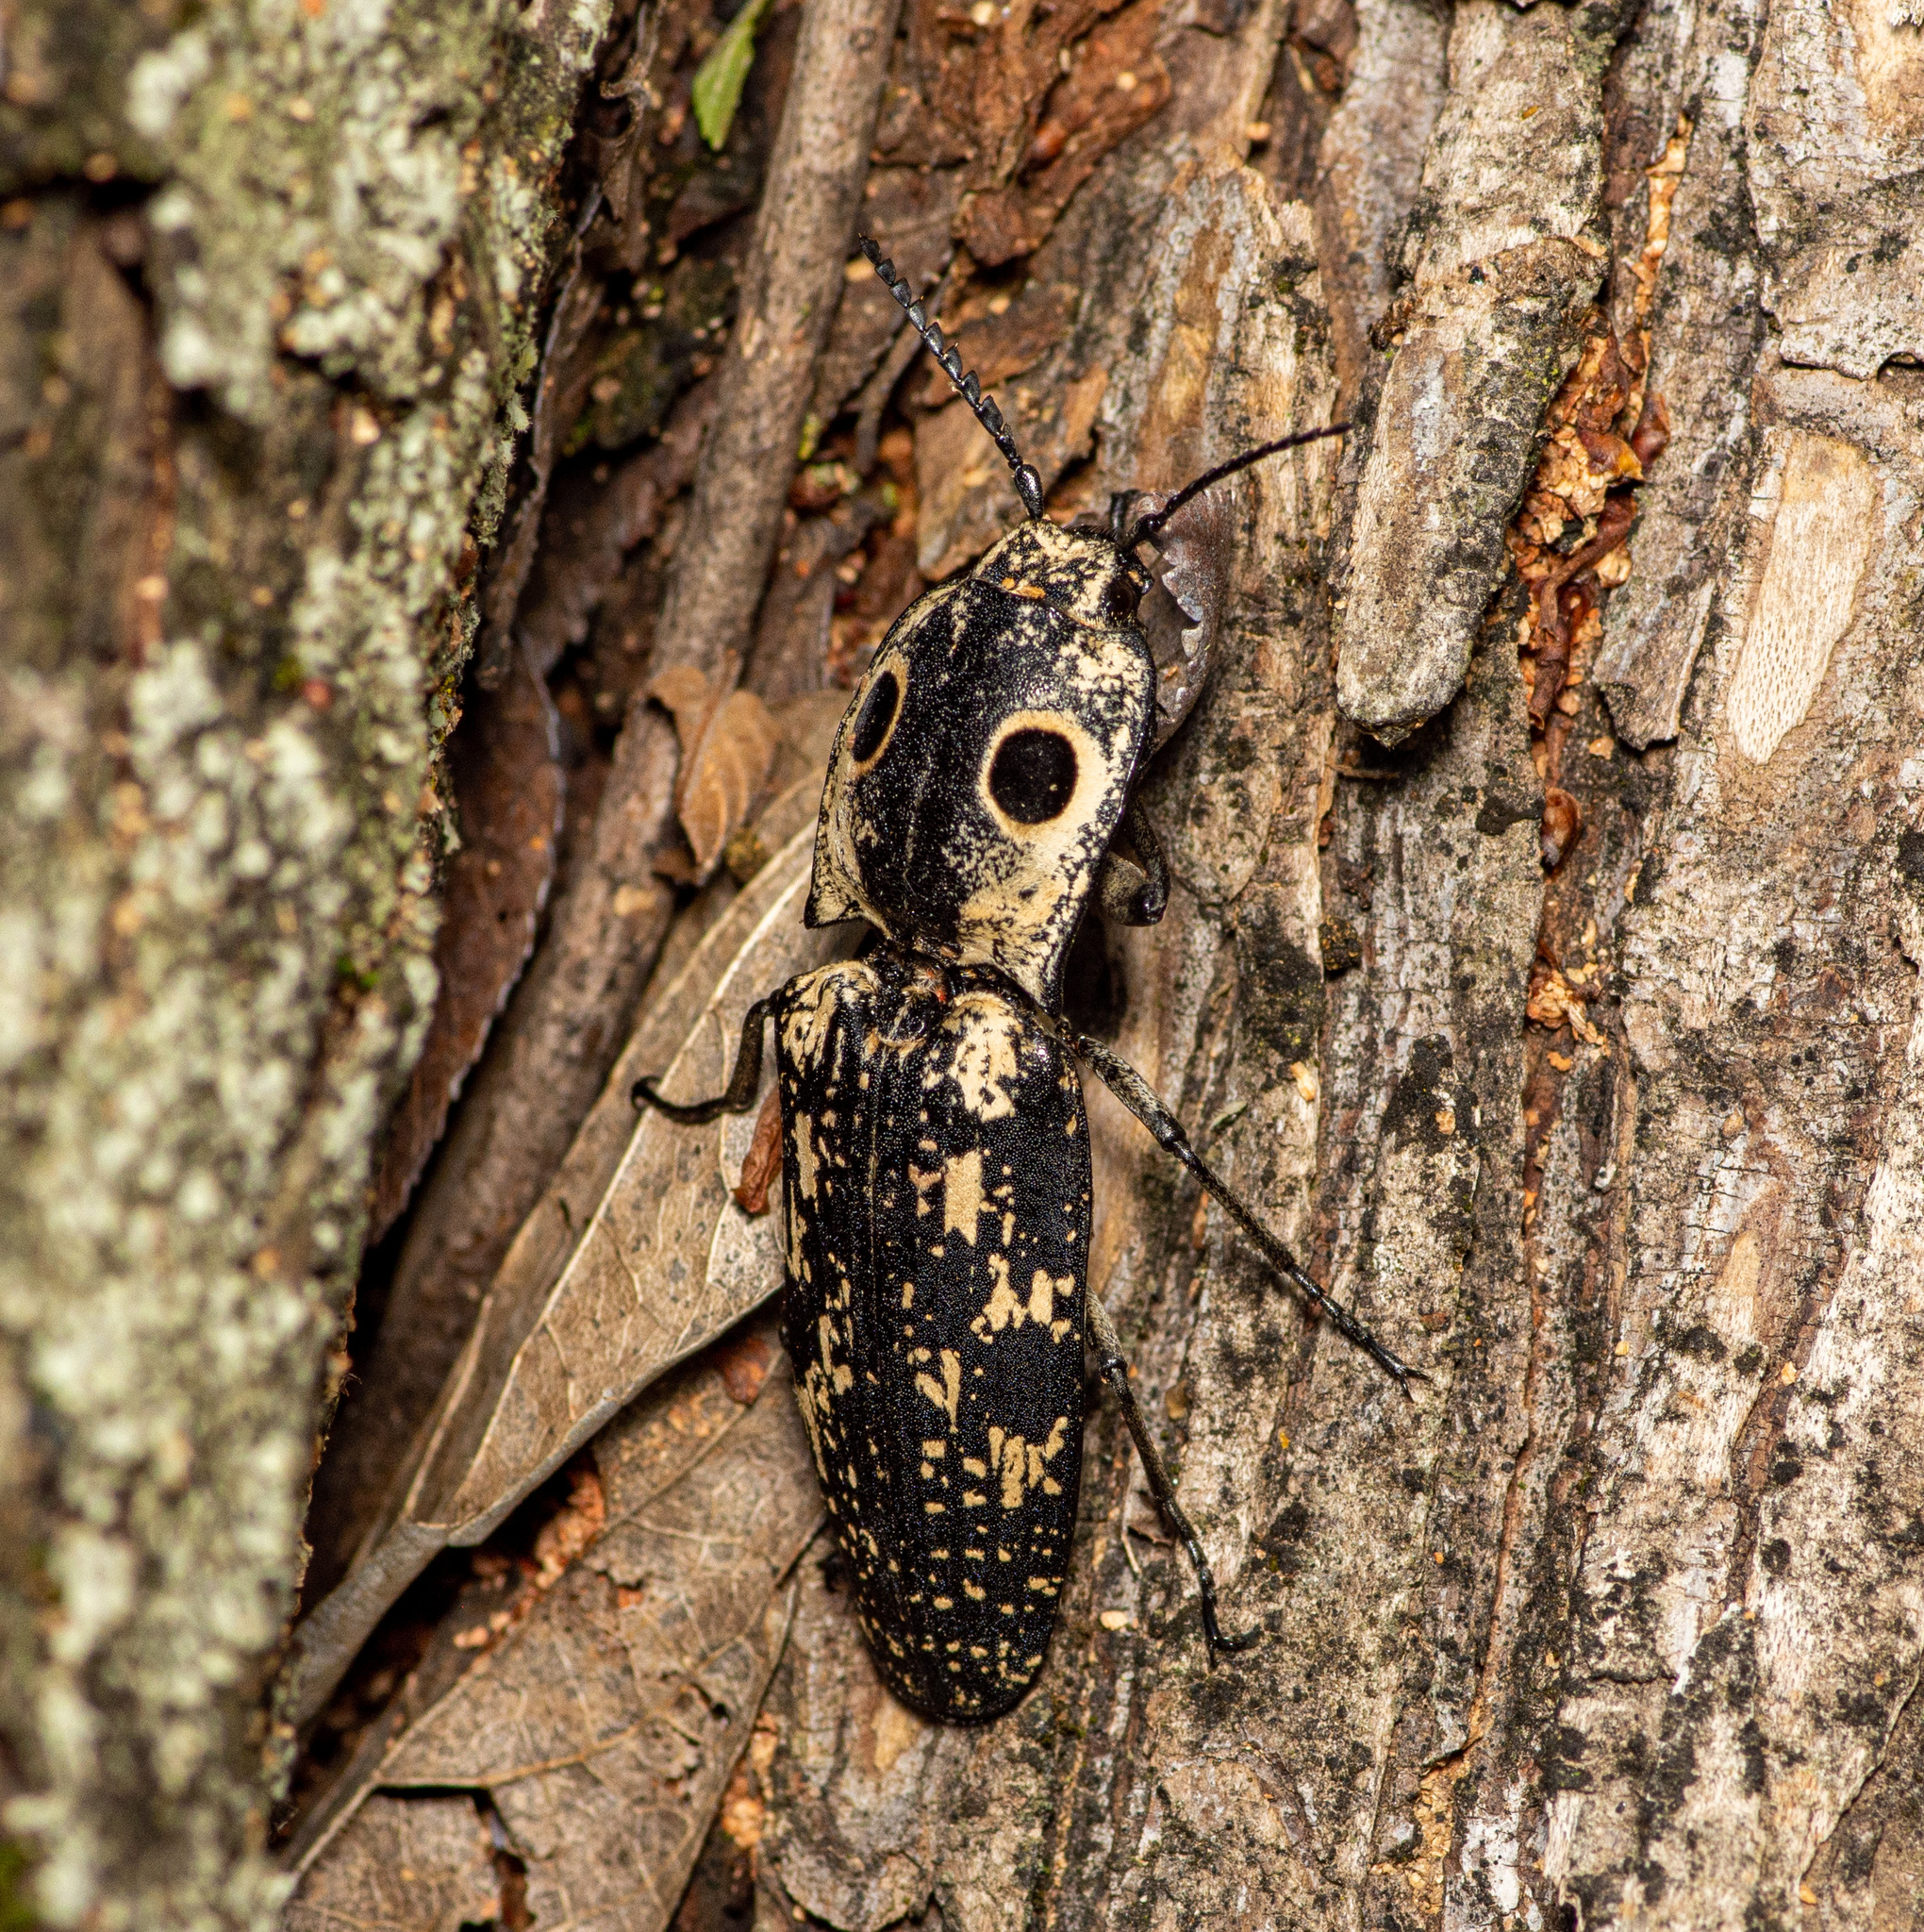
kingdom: Animalia
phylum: Arthropoda
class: Insecta
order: Coleoptera
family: Elateridae
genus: Alaus
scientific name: Alaus
